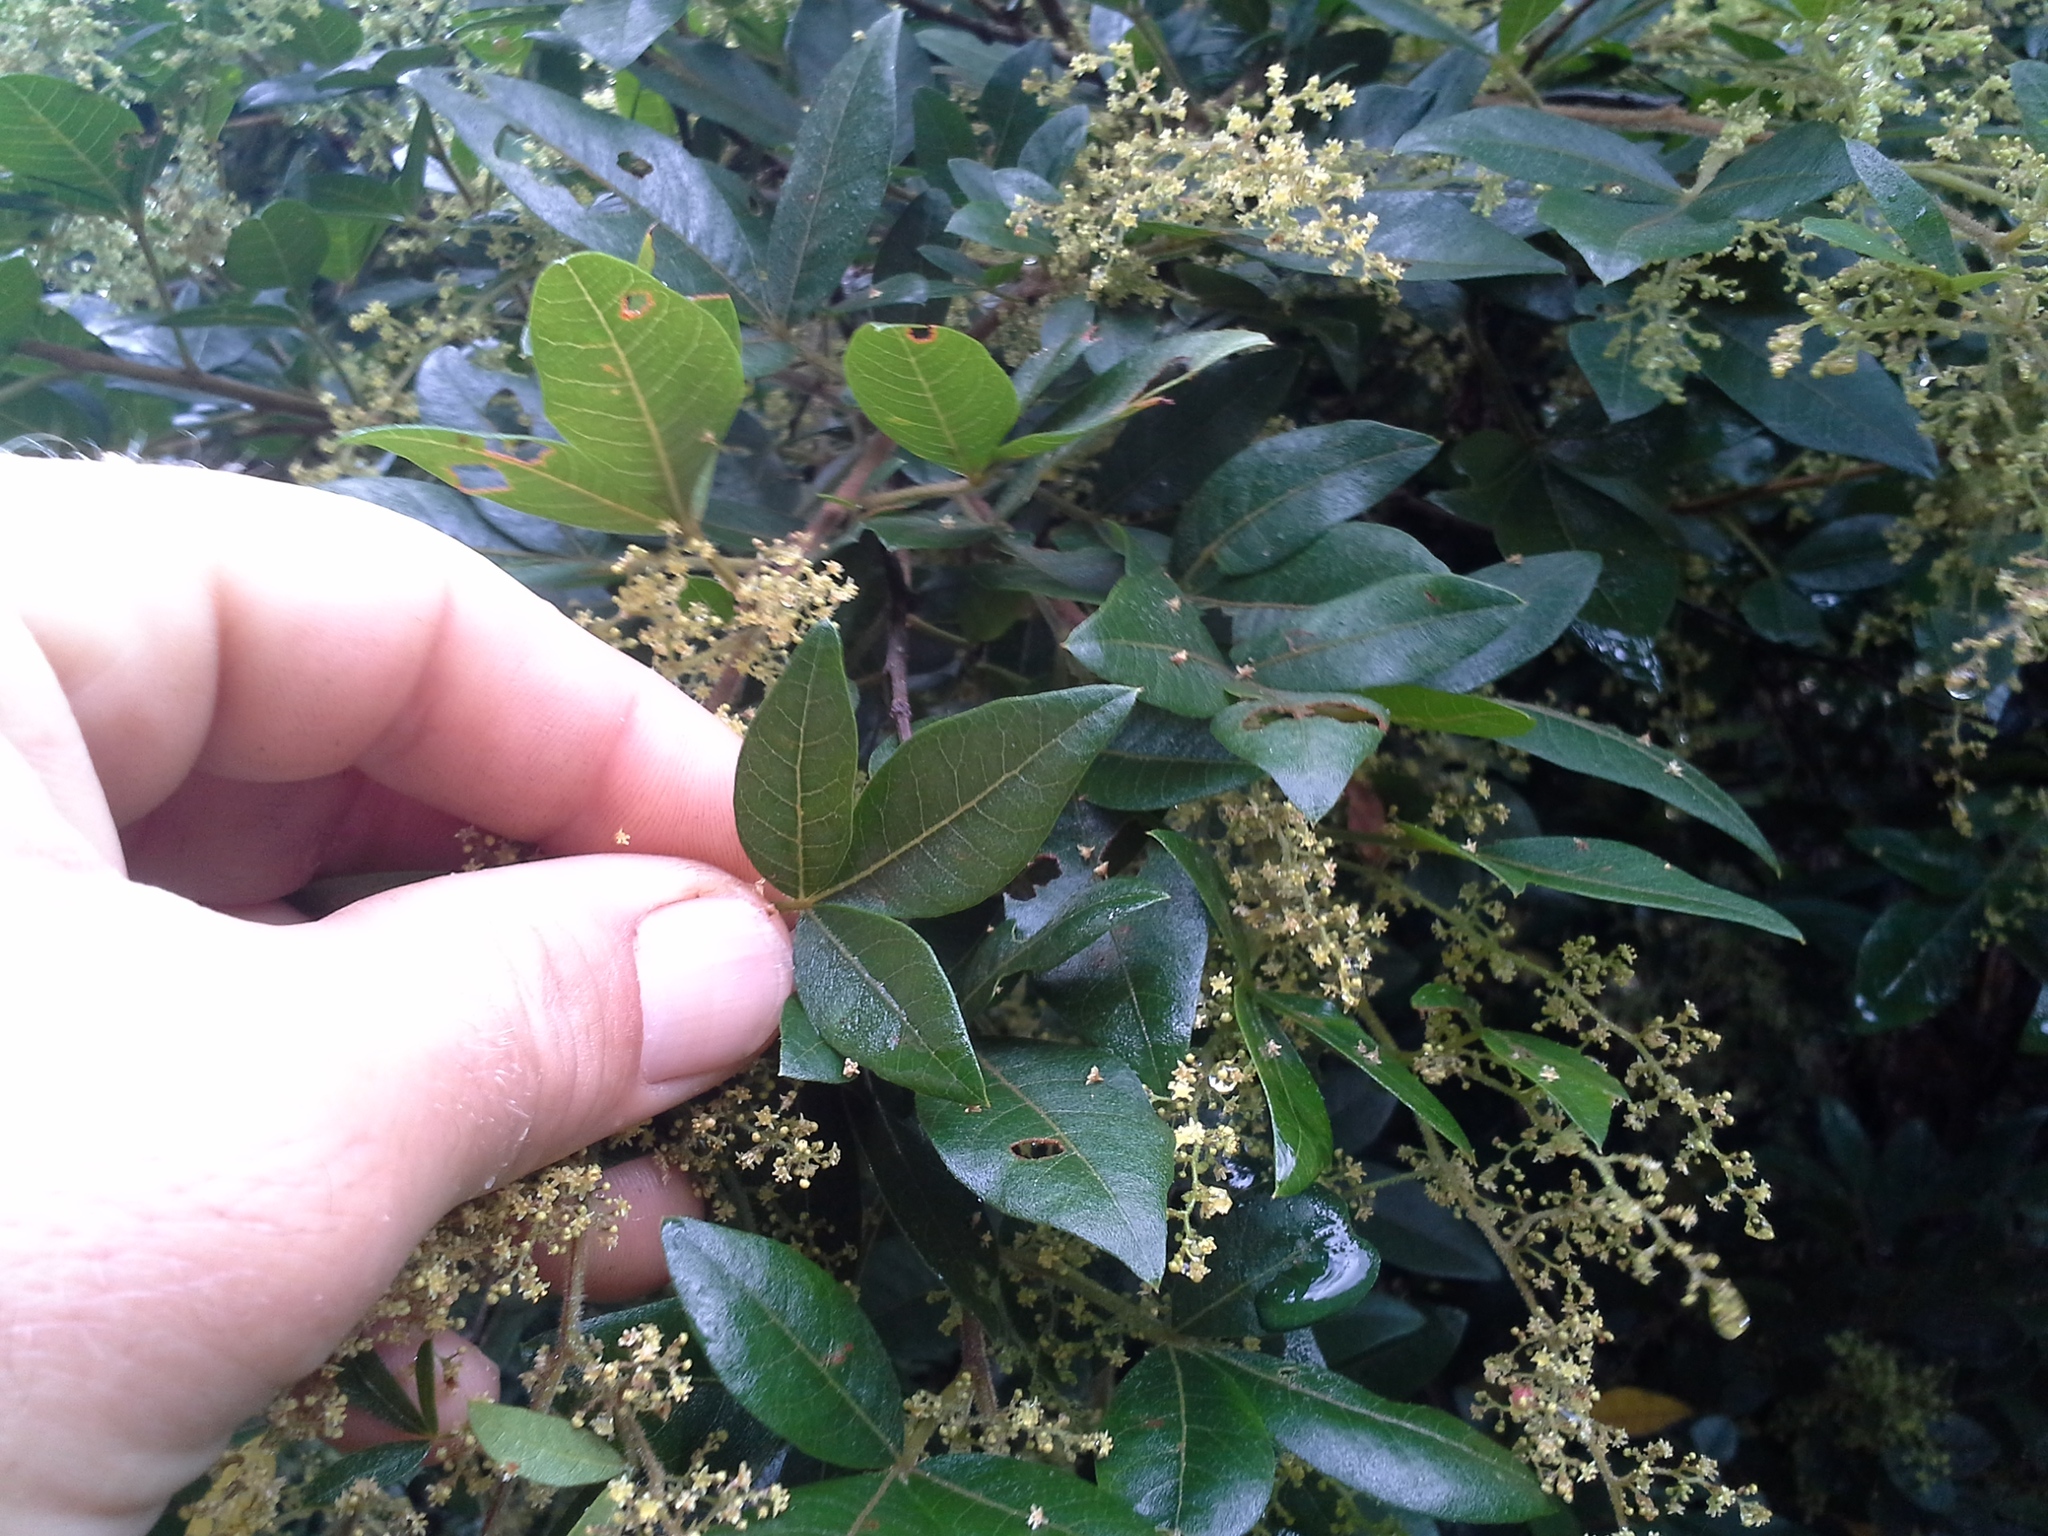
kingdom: Plantae
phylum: Tracheophyta
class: Magnoliopsida
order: Sapindales
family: Anacardiaceae
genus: Searsia
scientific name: Searsia pyroides
